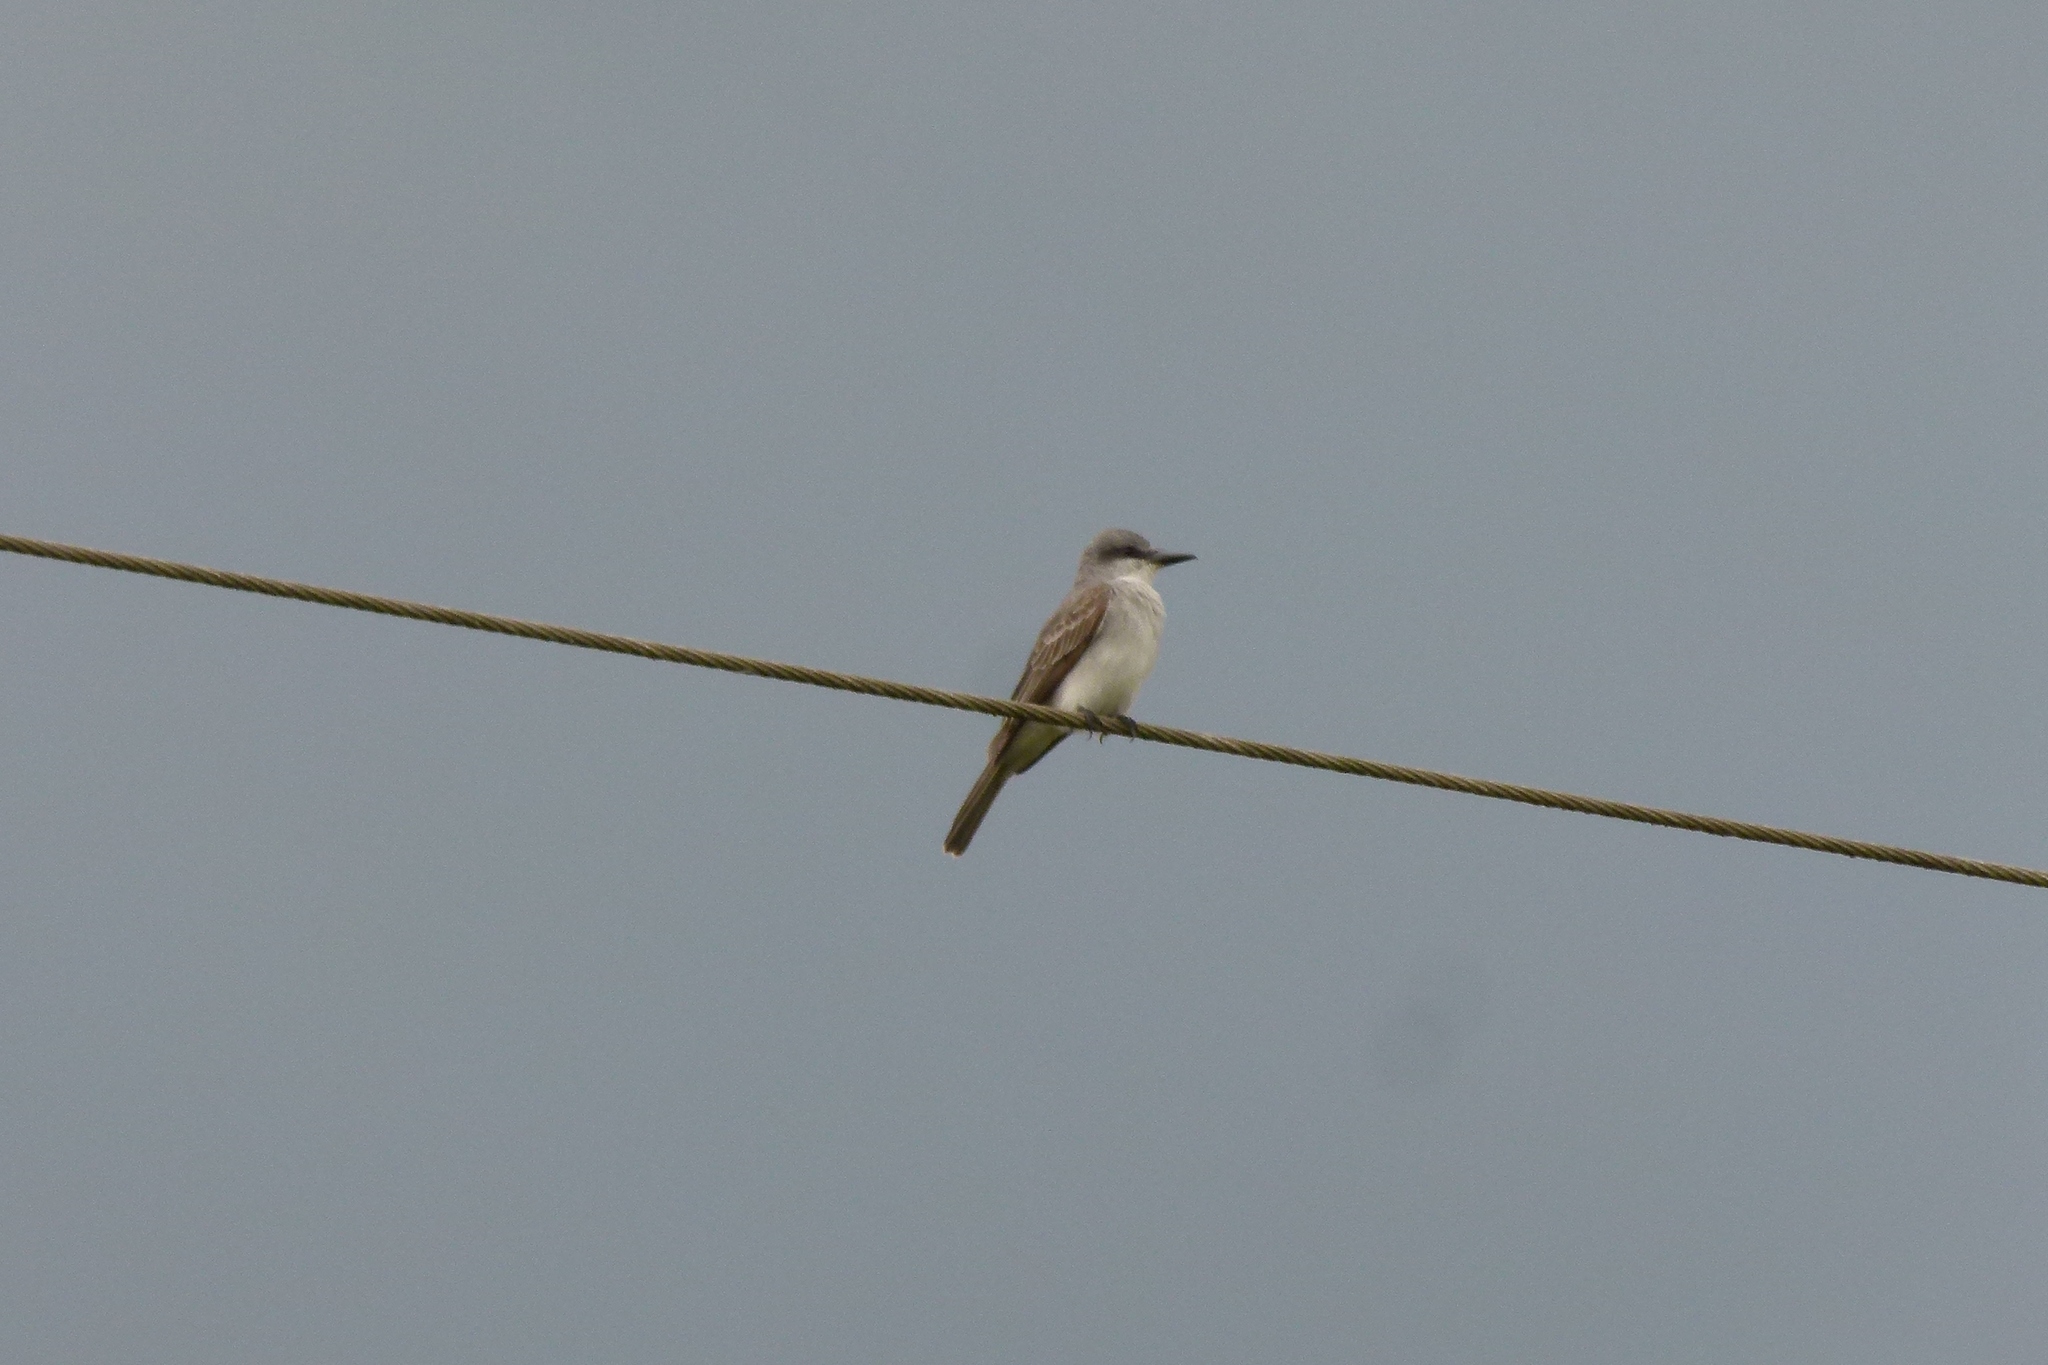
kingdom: Animalia
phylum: Chordata
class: Aves
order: Passeriformes
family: Tyrannidae
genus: Tyrannus
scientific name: Tyrannus dominicensis
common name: Gray kingbird
